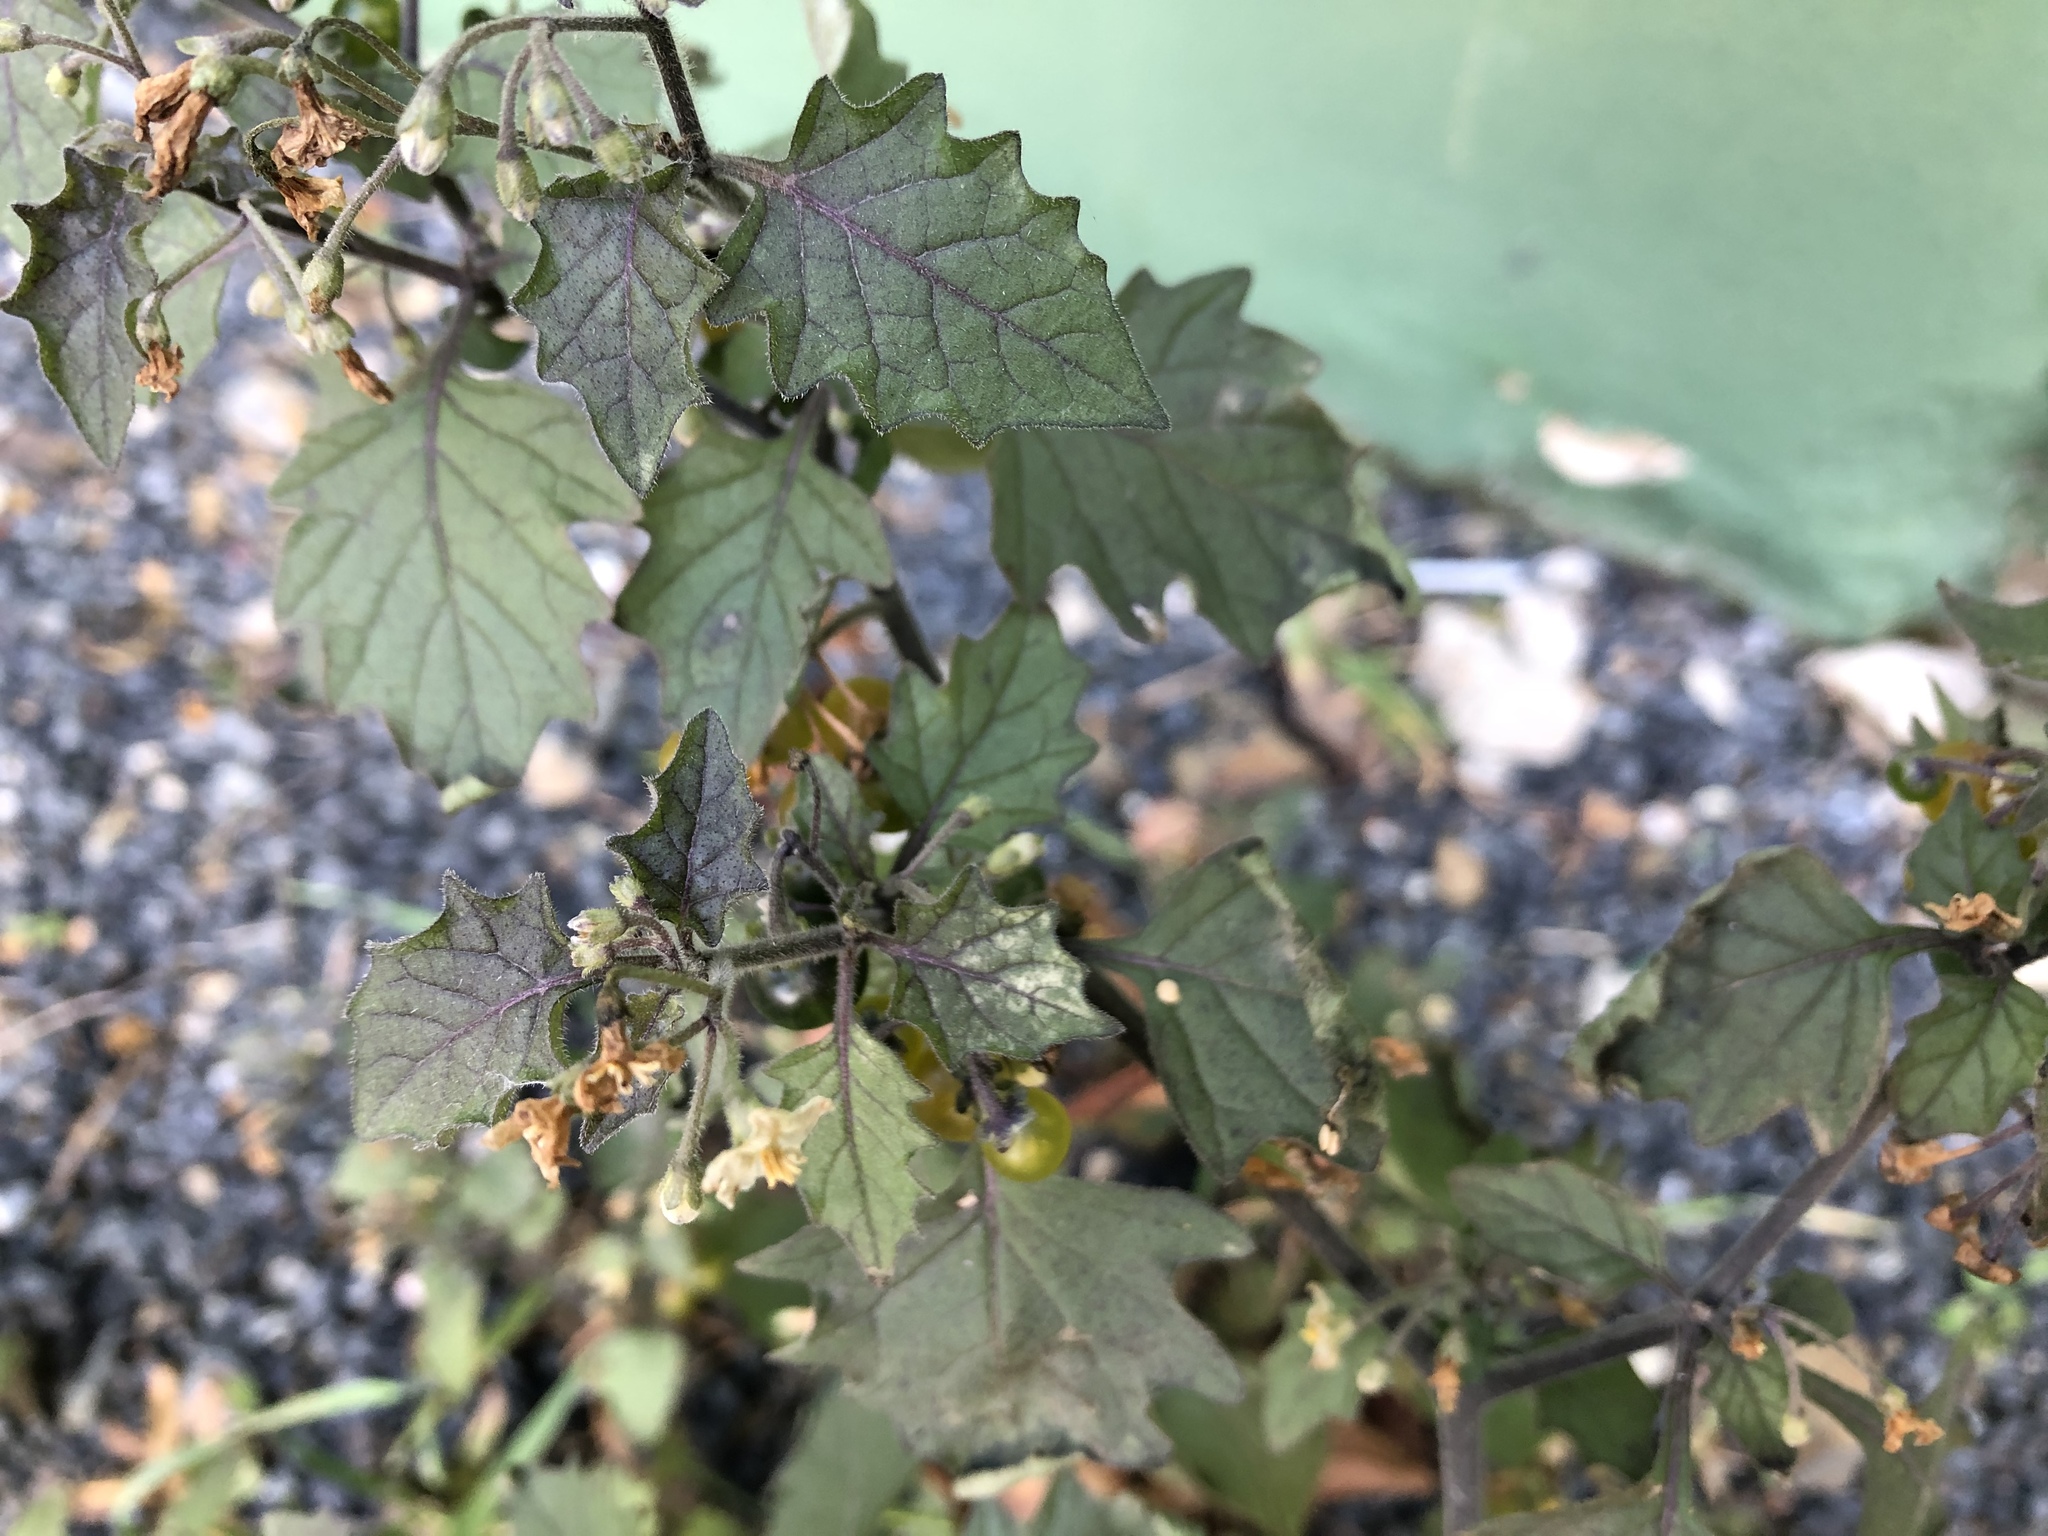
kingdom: Plantae
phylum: Tracheophyta
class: Magnoliopsida
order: Solanales
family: Solanaceae
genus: Solanum
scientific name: Solanum nigrum
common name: Black nightshade
